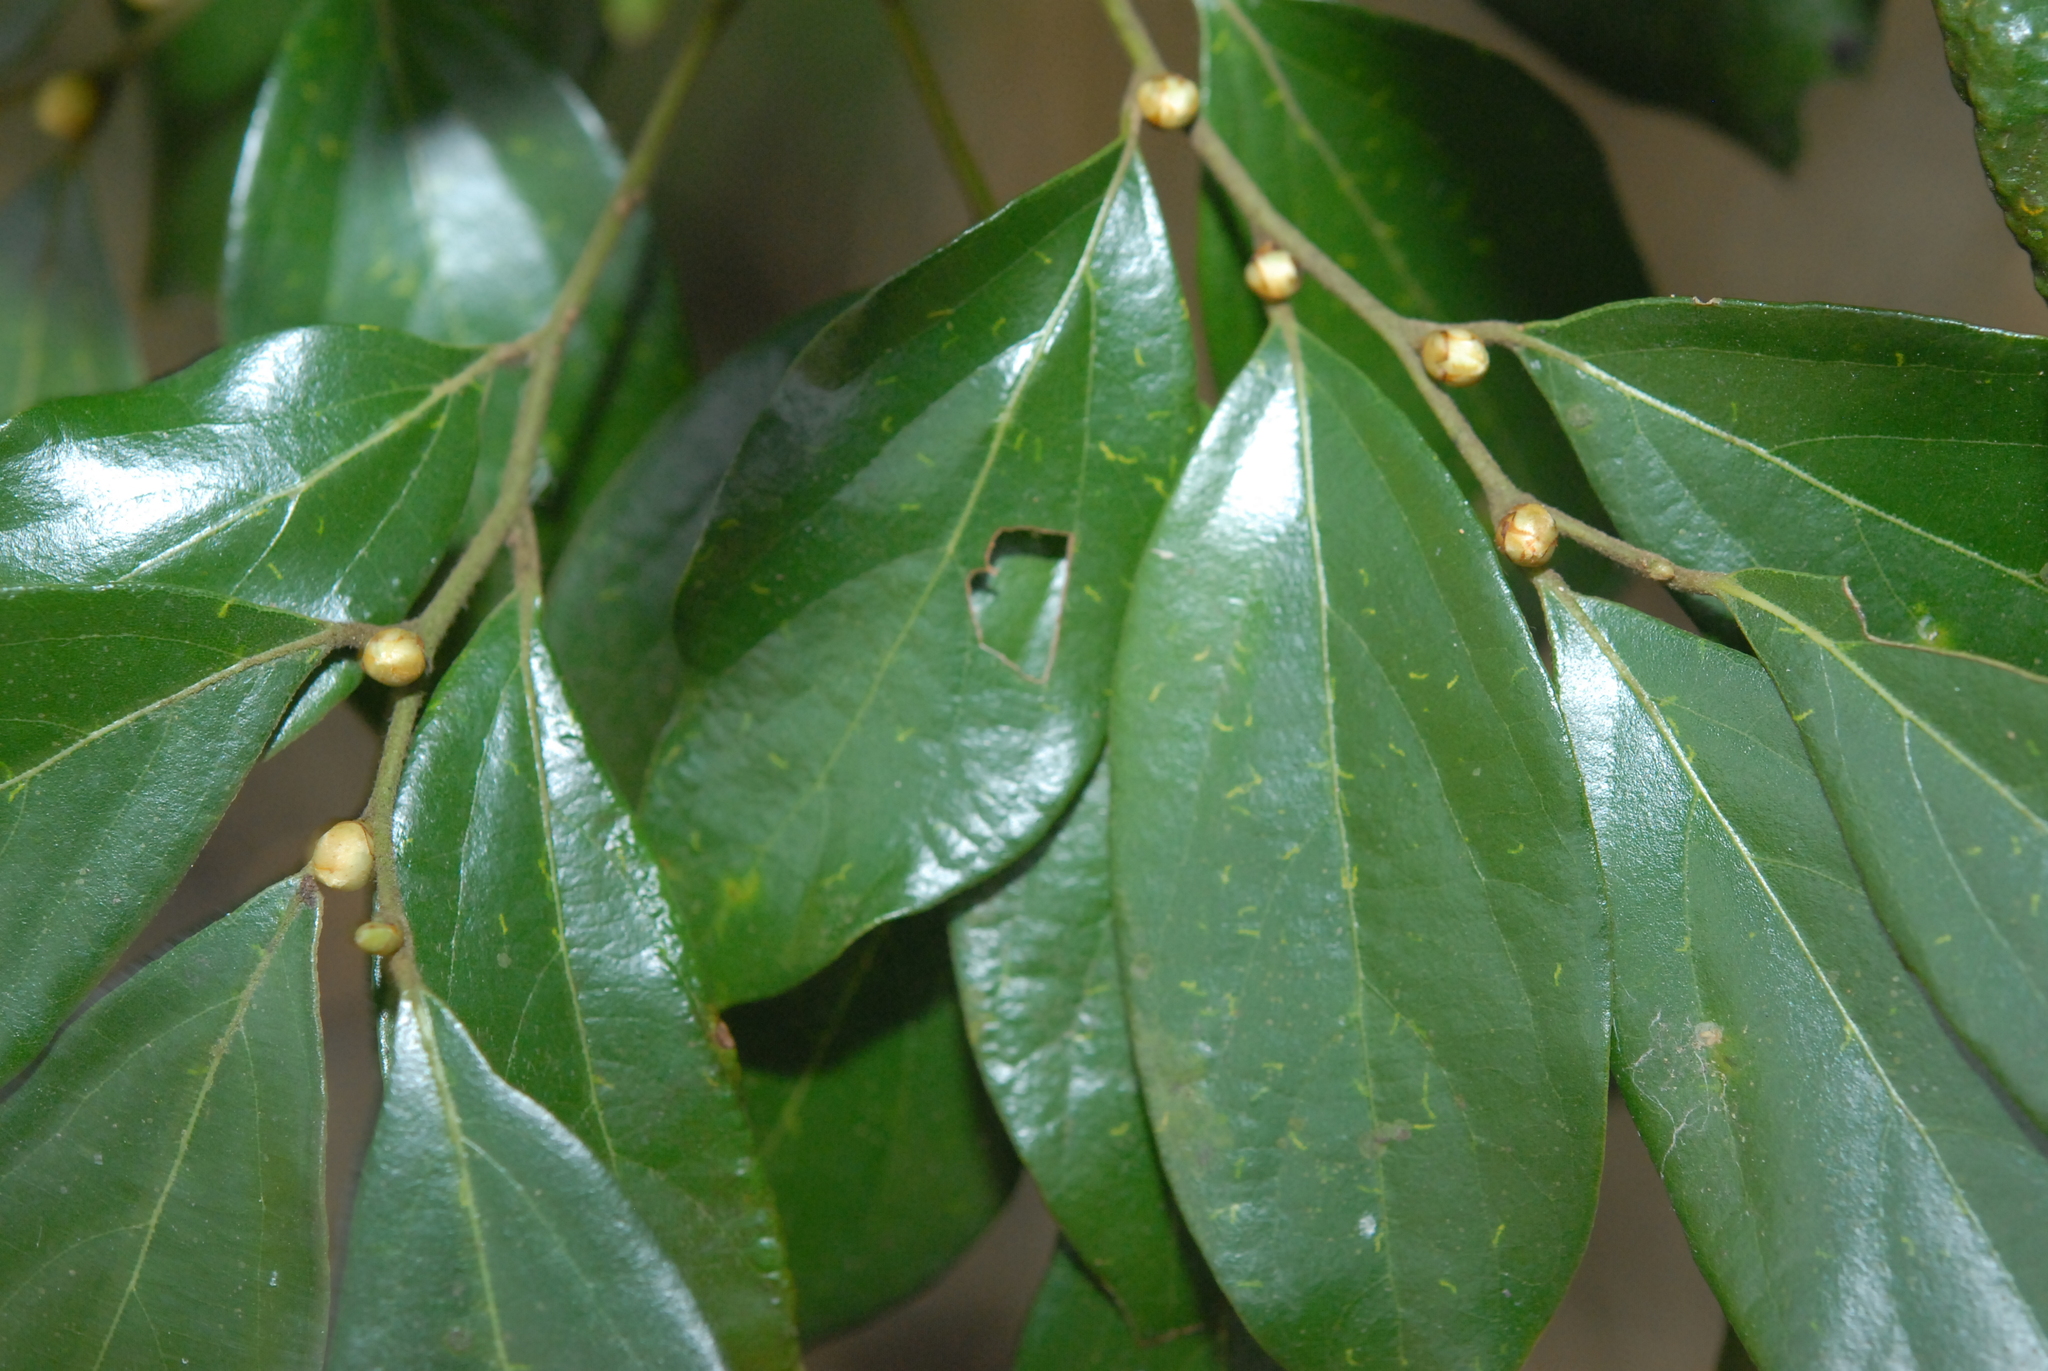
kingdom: Plantae
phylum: Tracheophyta
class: Magnoliopsida
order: Laurales
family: Lauraceae
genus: Lindera
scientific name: Lindera communis
